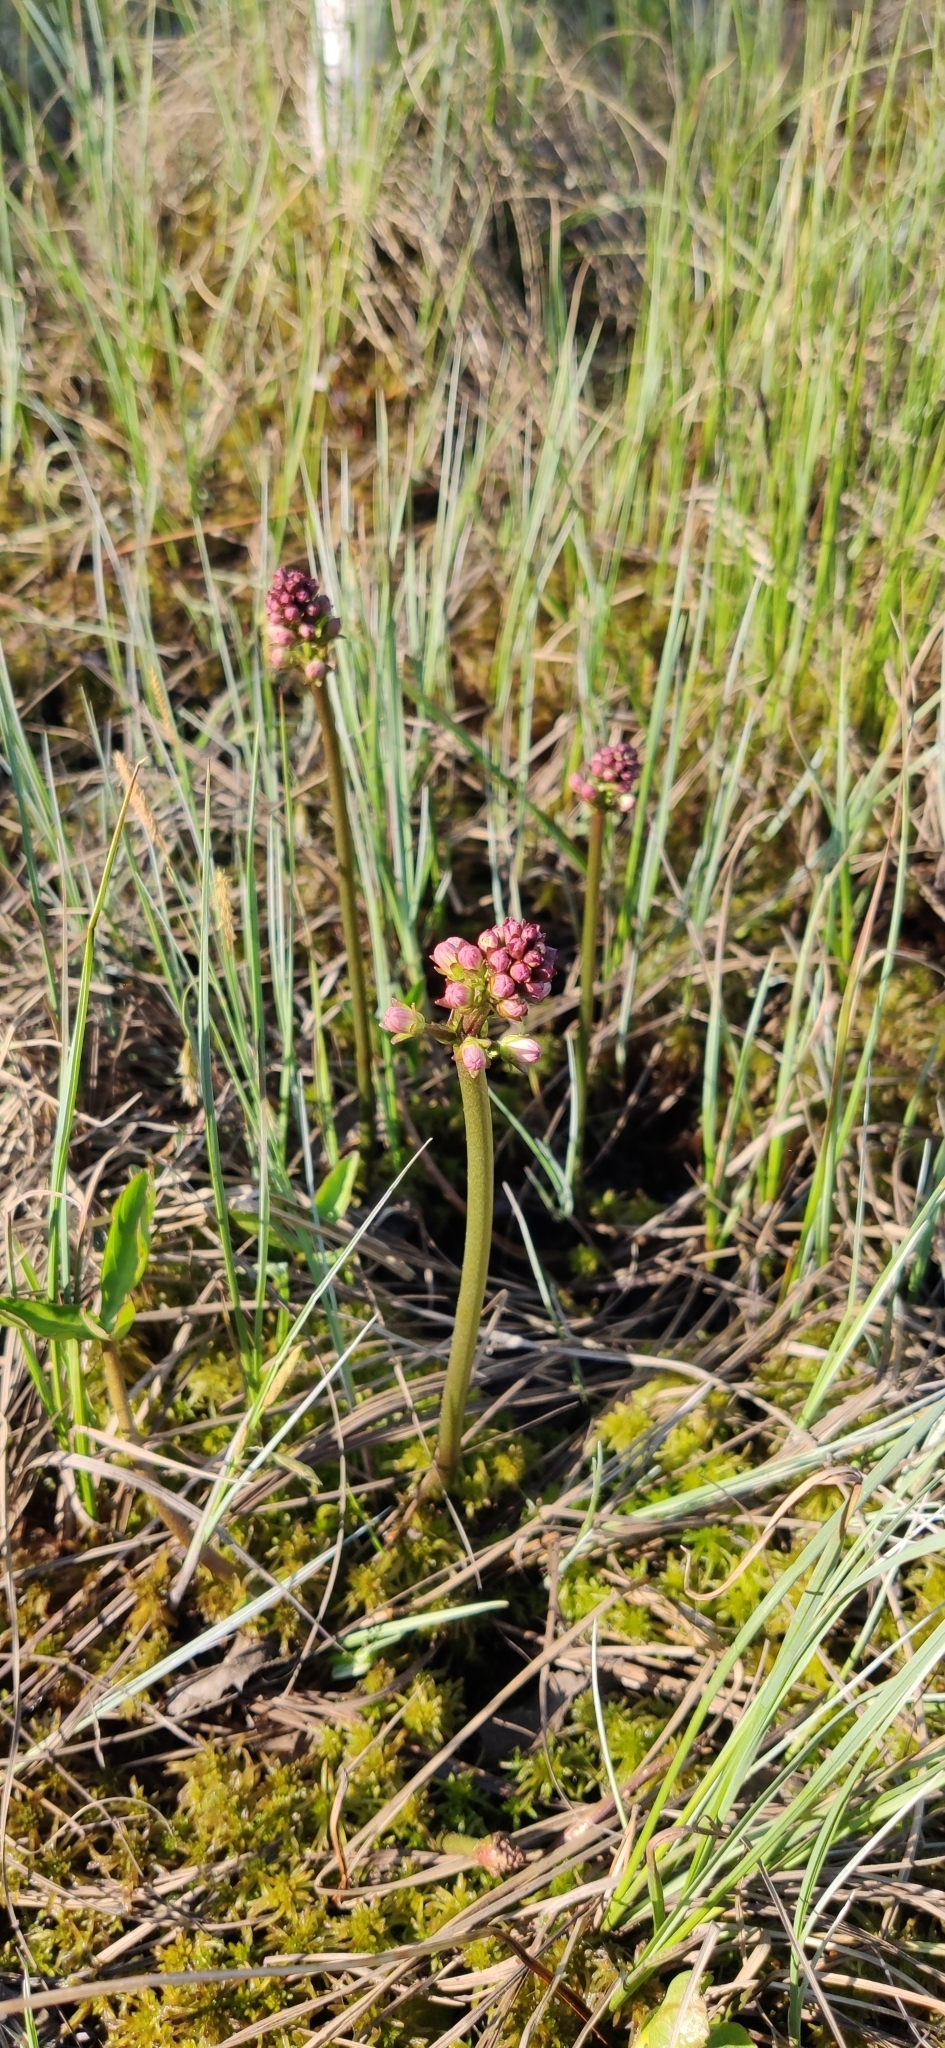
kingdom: Plantae
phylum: Tracheophyta
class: Magnoliopsida
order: Asterales
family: Menyanthaceae
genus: Menyanthes
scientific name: Menyanthes trifoliata
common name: Bogbean
